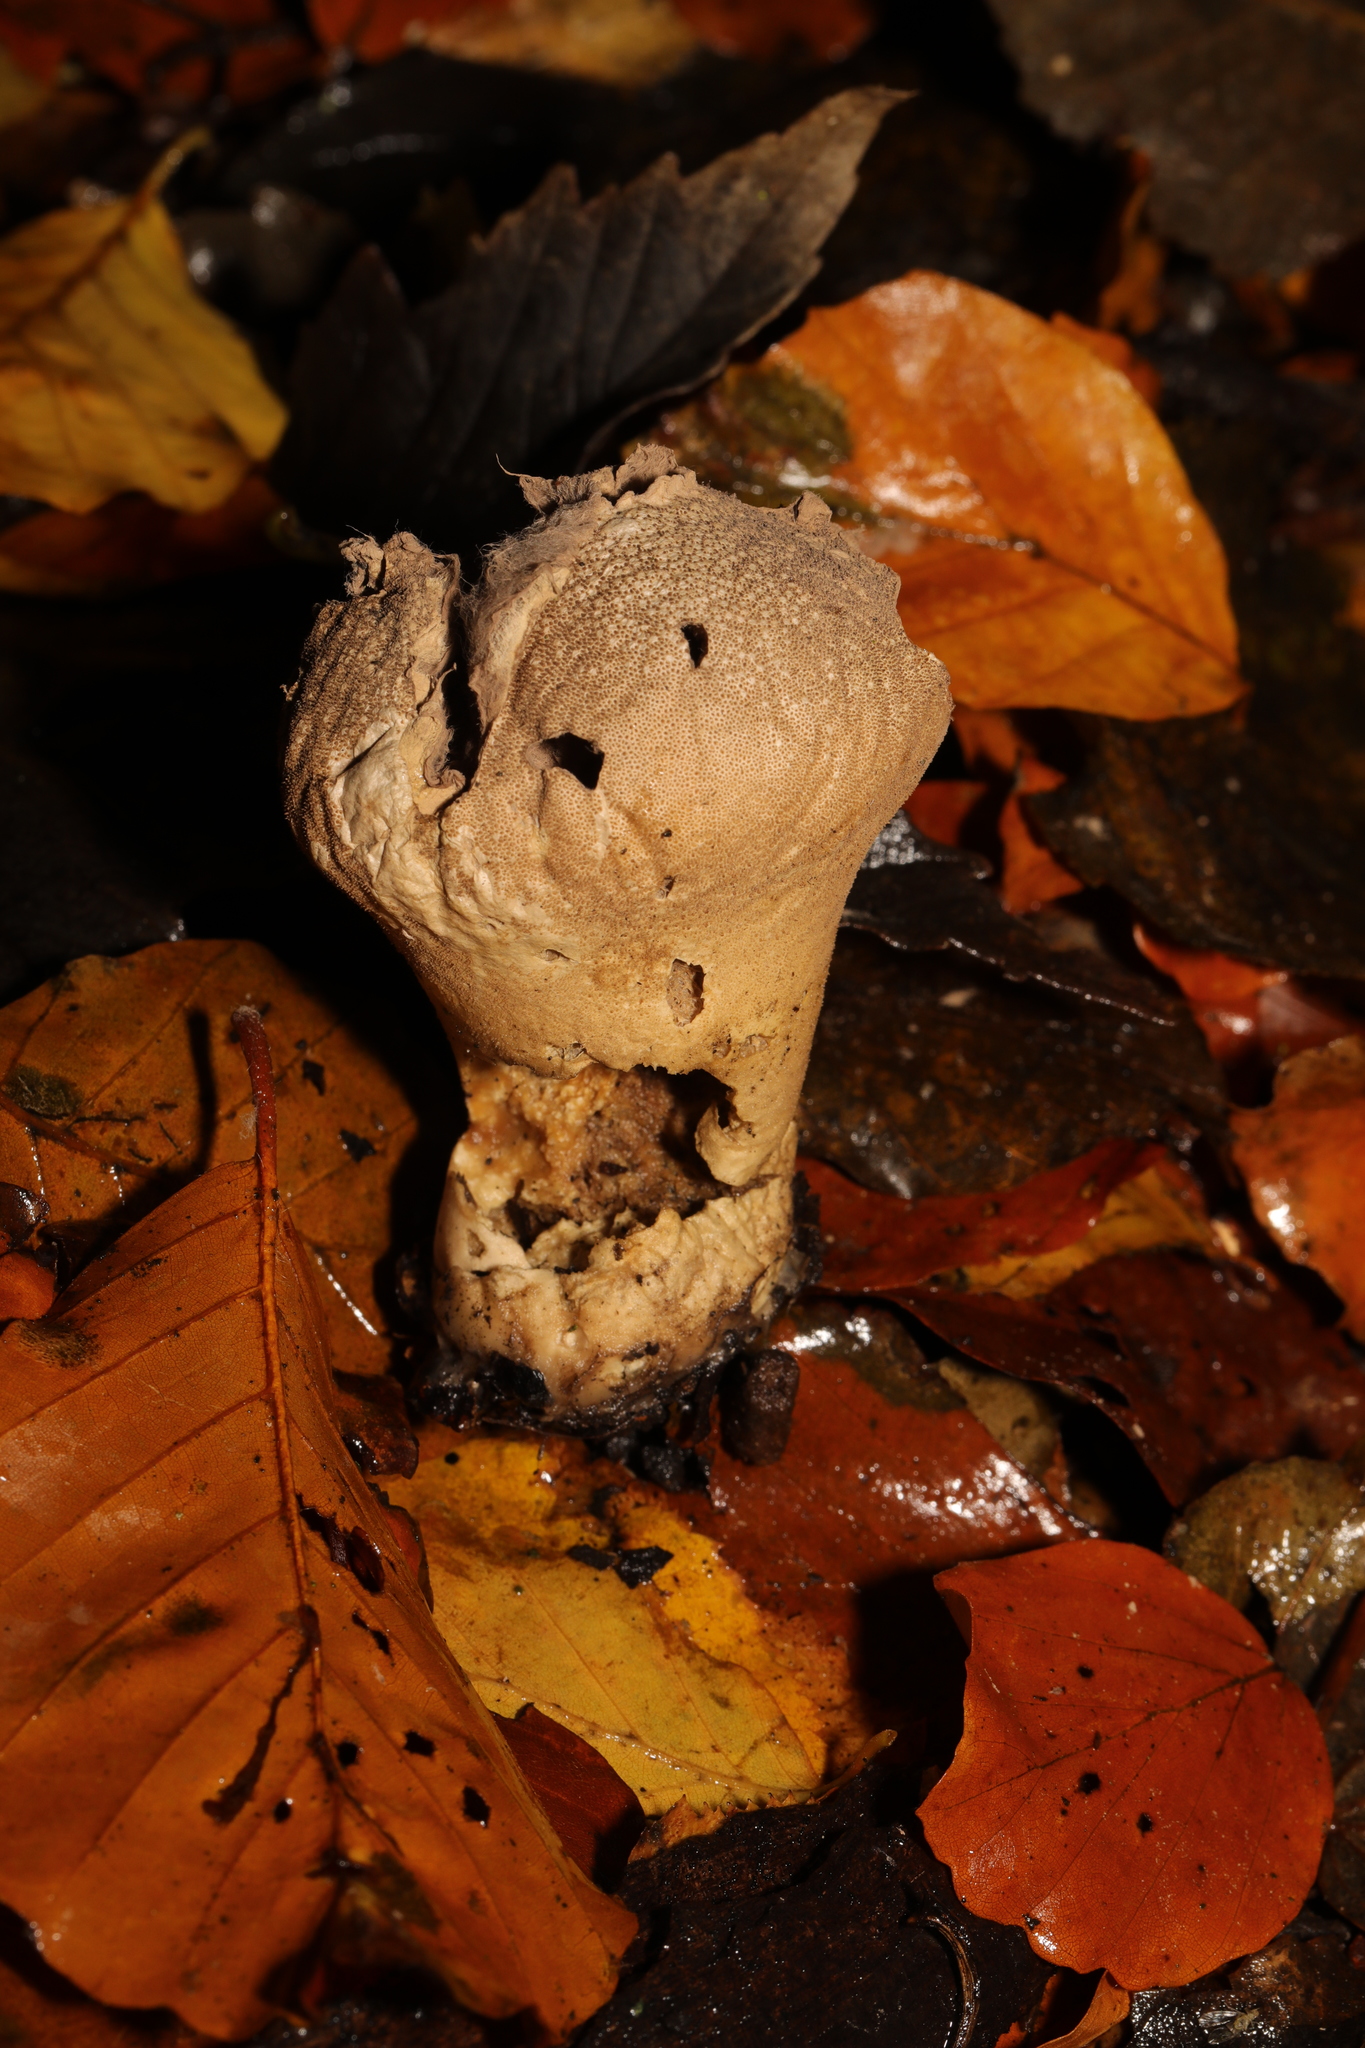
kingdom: Fungi
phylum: Basidiomycota
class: Agaricomycetes
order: Agaricales
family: Lycoperdaceae
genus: Lycoperdon
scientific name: Lycoperdon perlatum
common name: Common puffball
